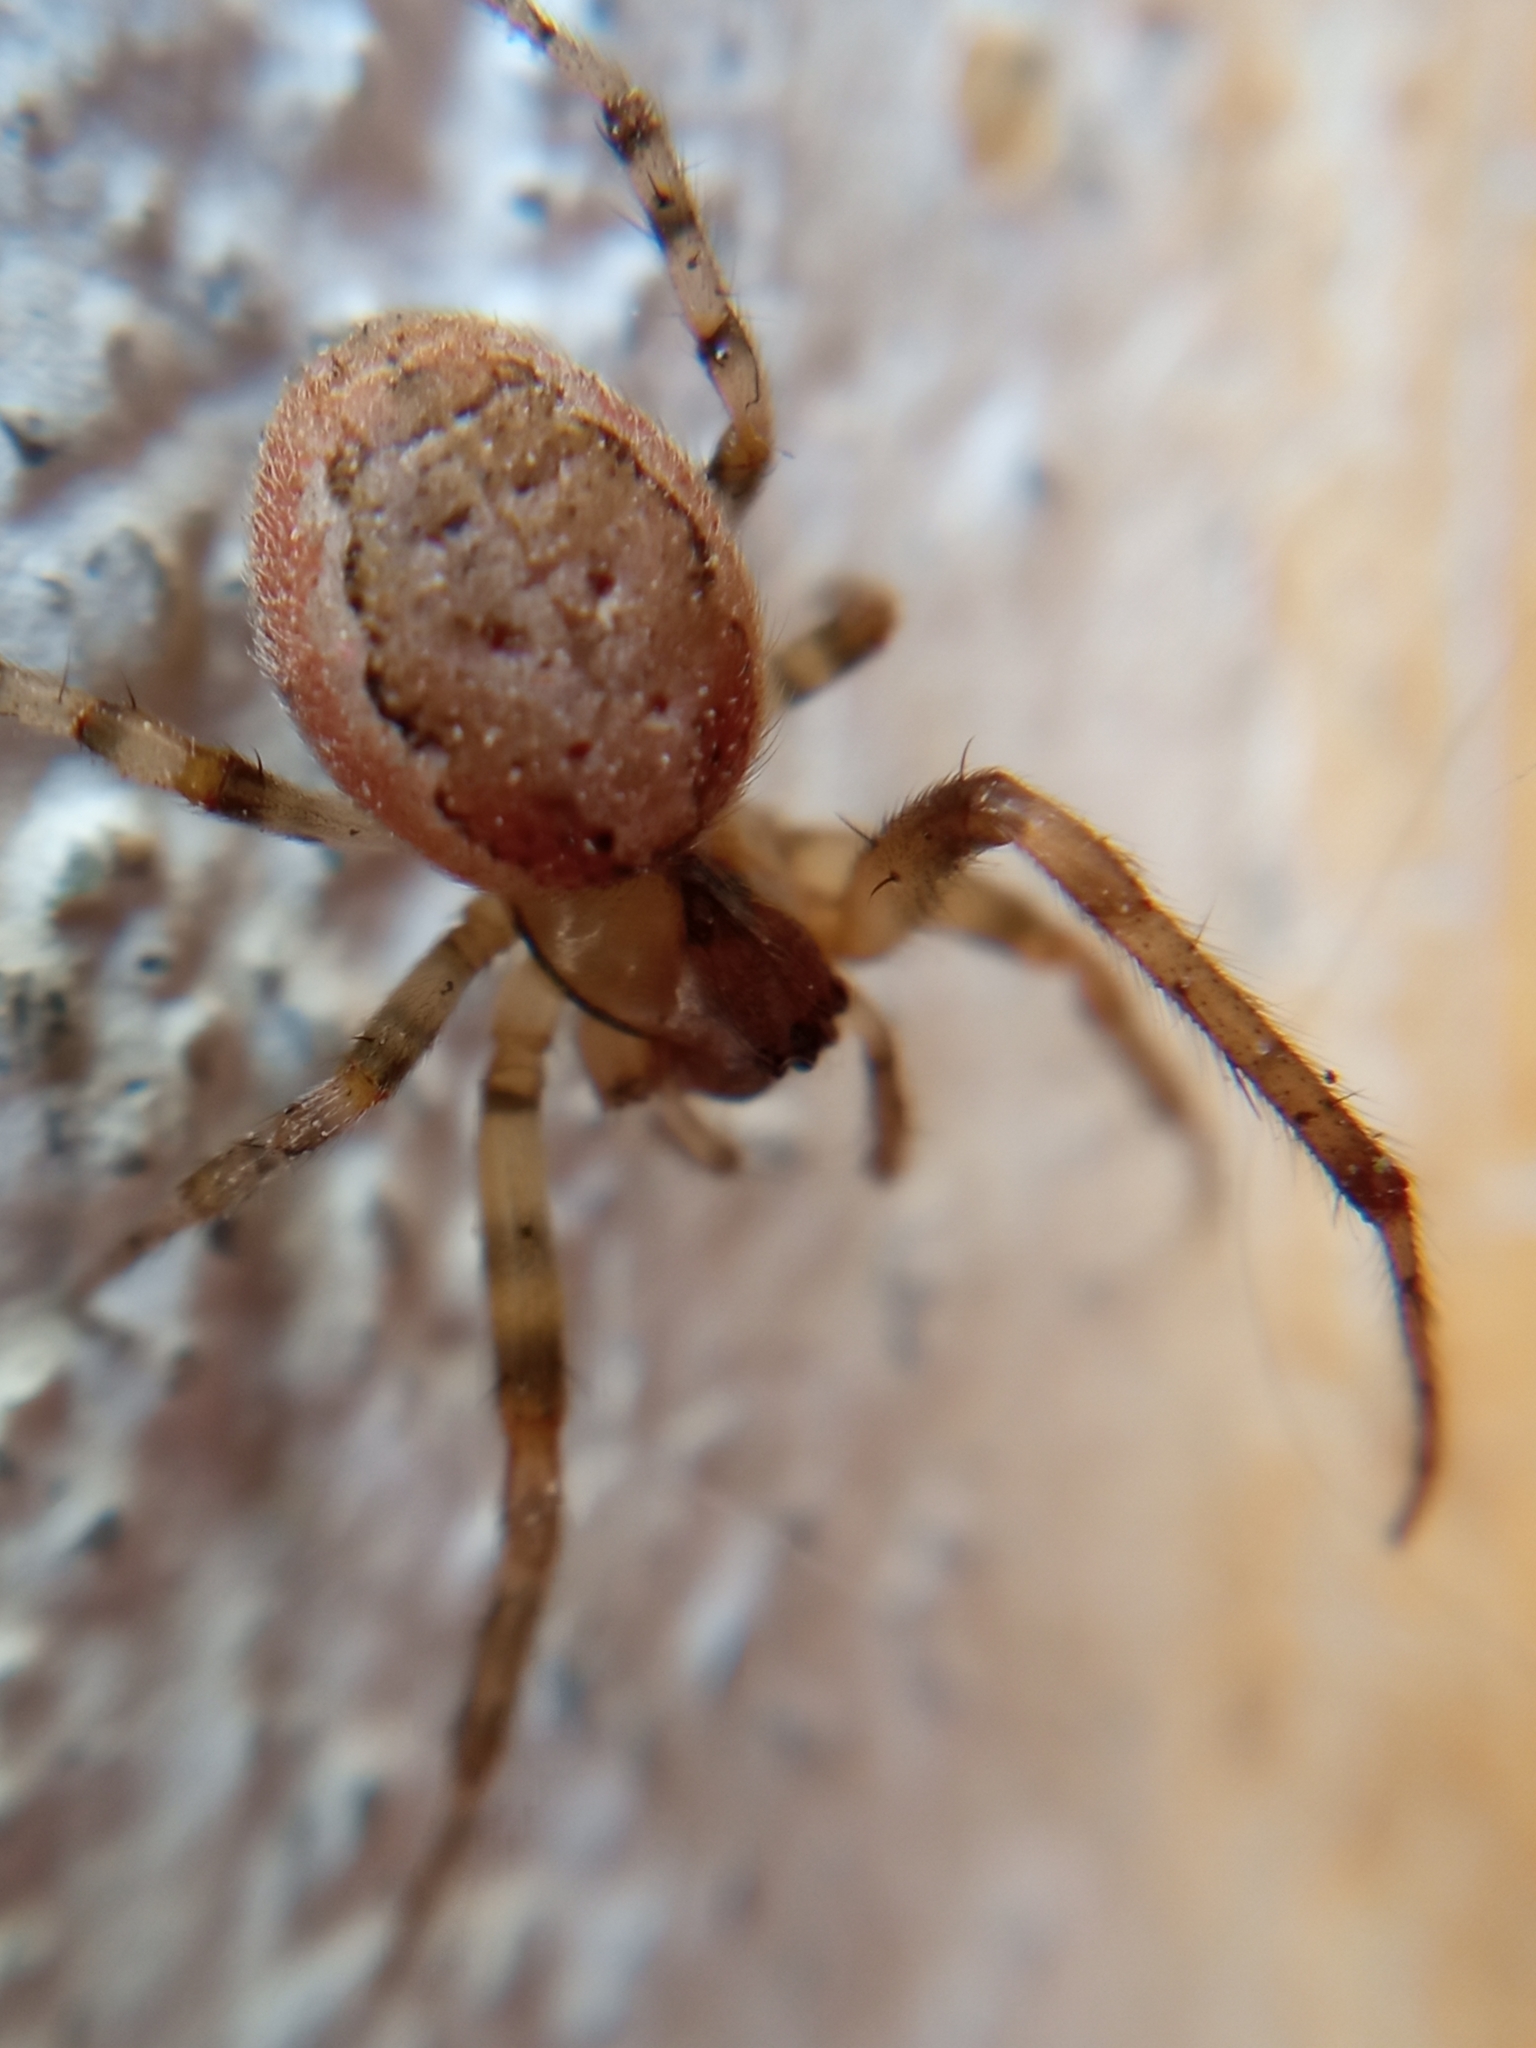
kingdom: Animalia
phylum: Arthropoda
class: Arachnida
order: Araneae
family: Araneidae
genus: Zygiella
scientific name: Zygiella
